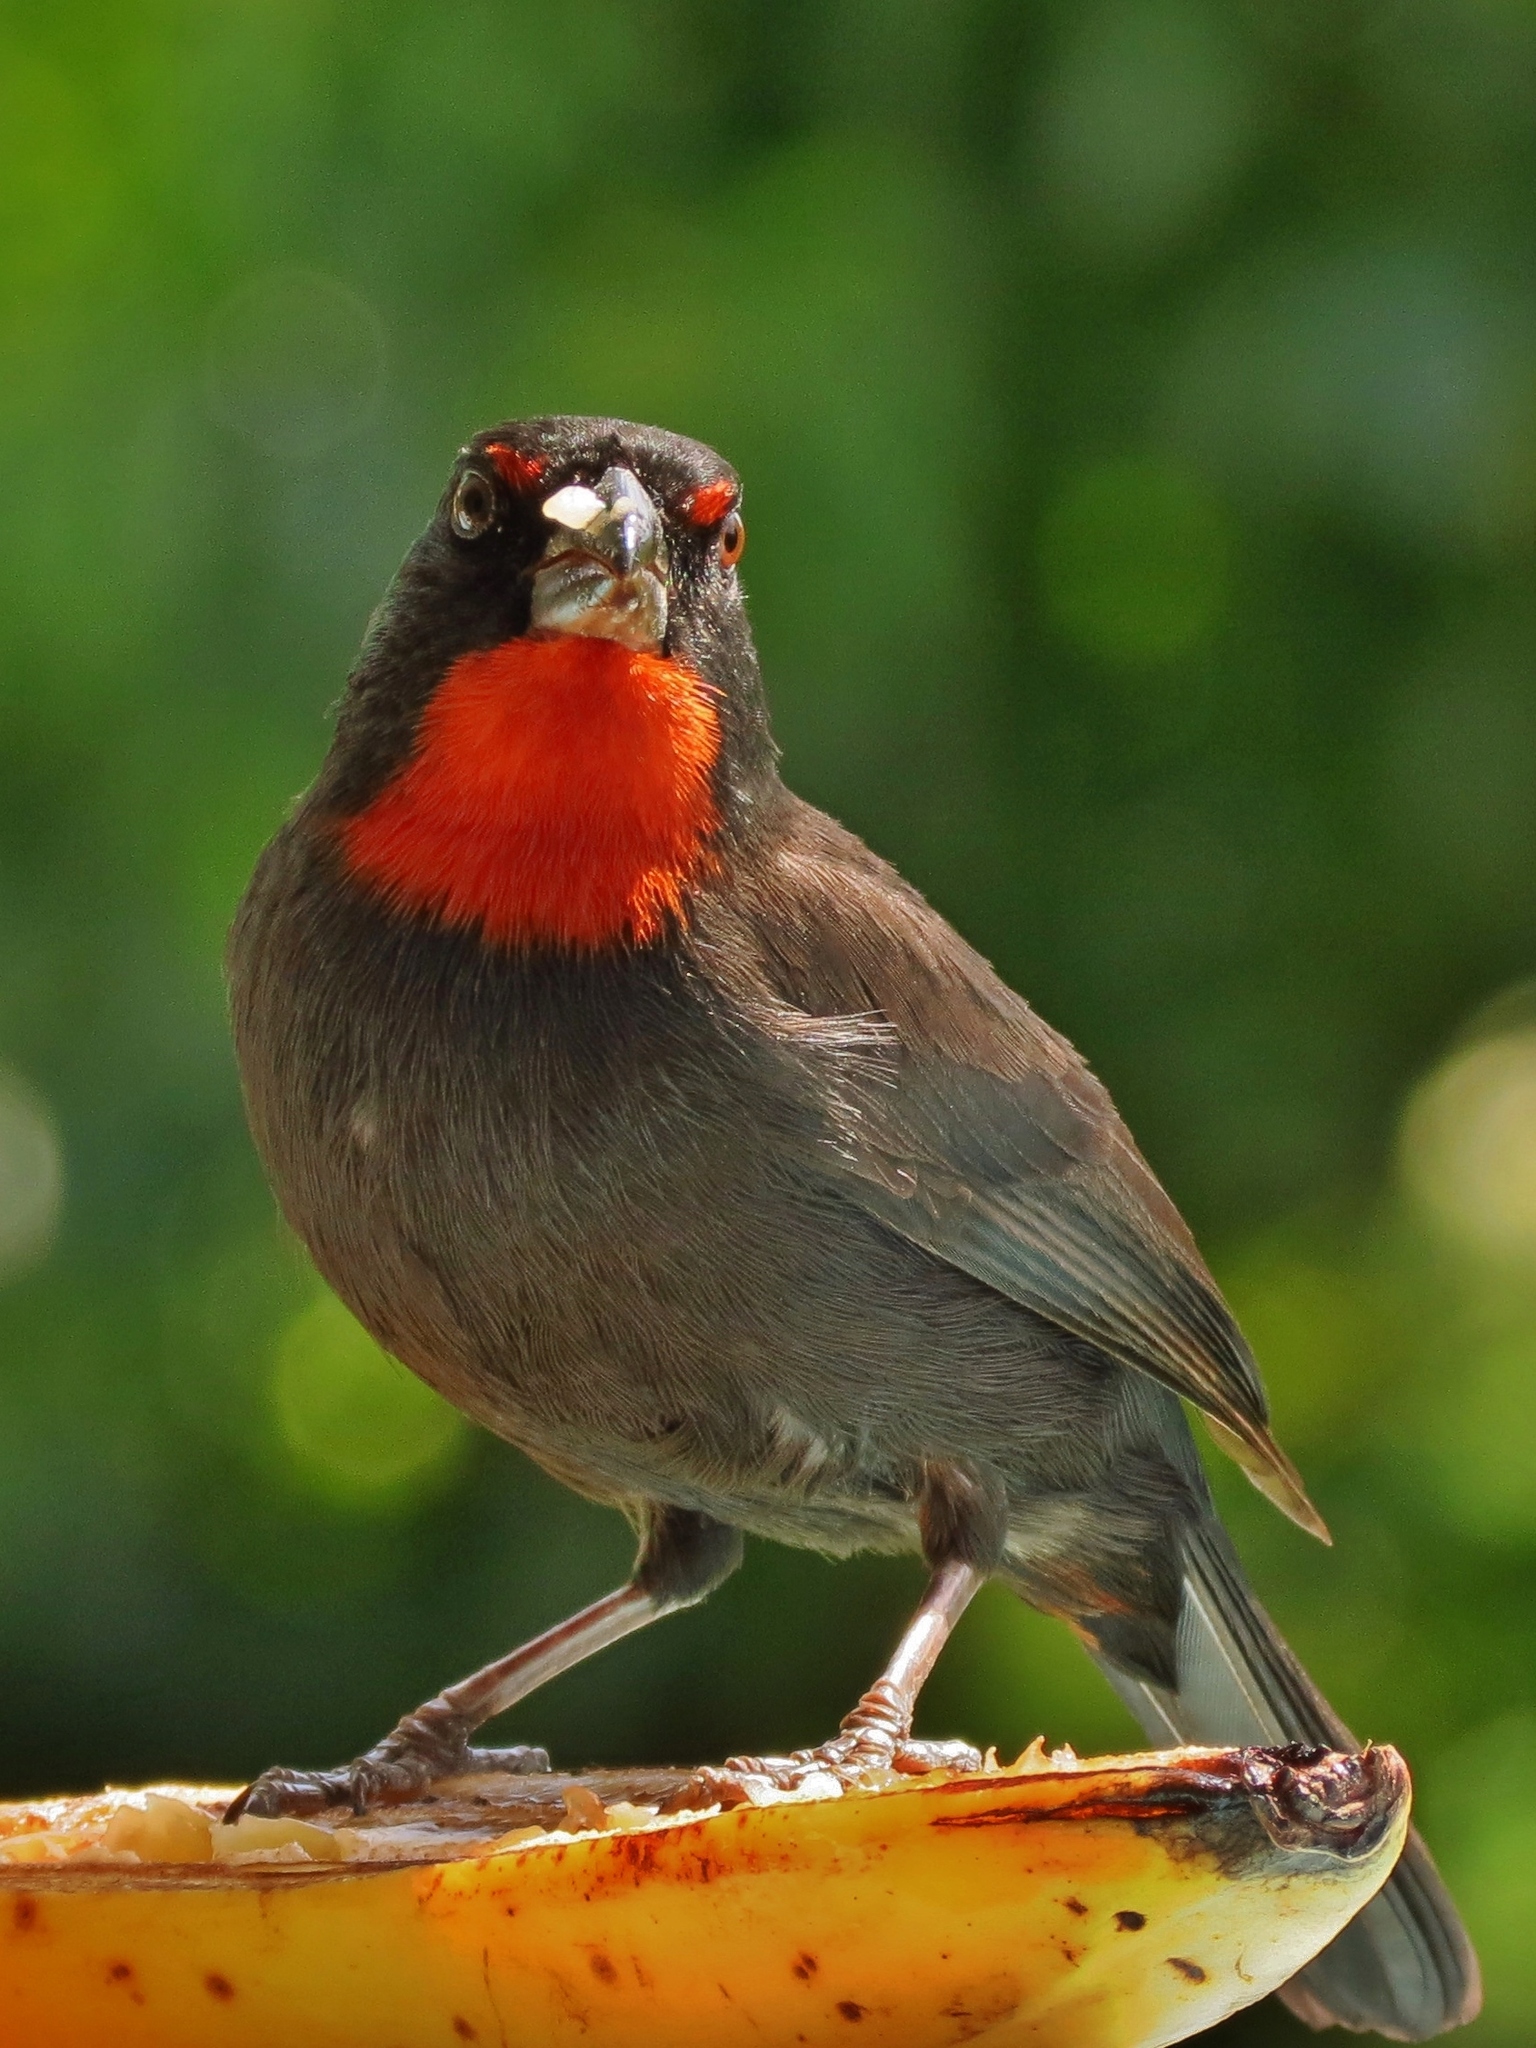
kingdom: Animalia
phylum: Chordata
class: Aves
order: Passeriformes
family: Thraupidae
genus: Loxigilla
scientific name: Loxigilla noctis
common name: Lesser antillean bullfinch
